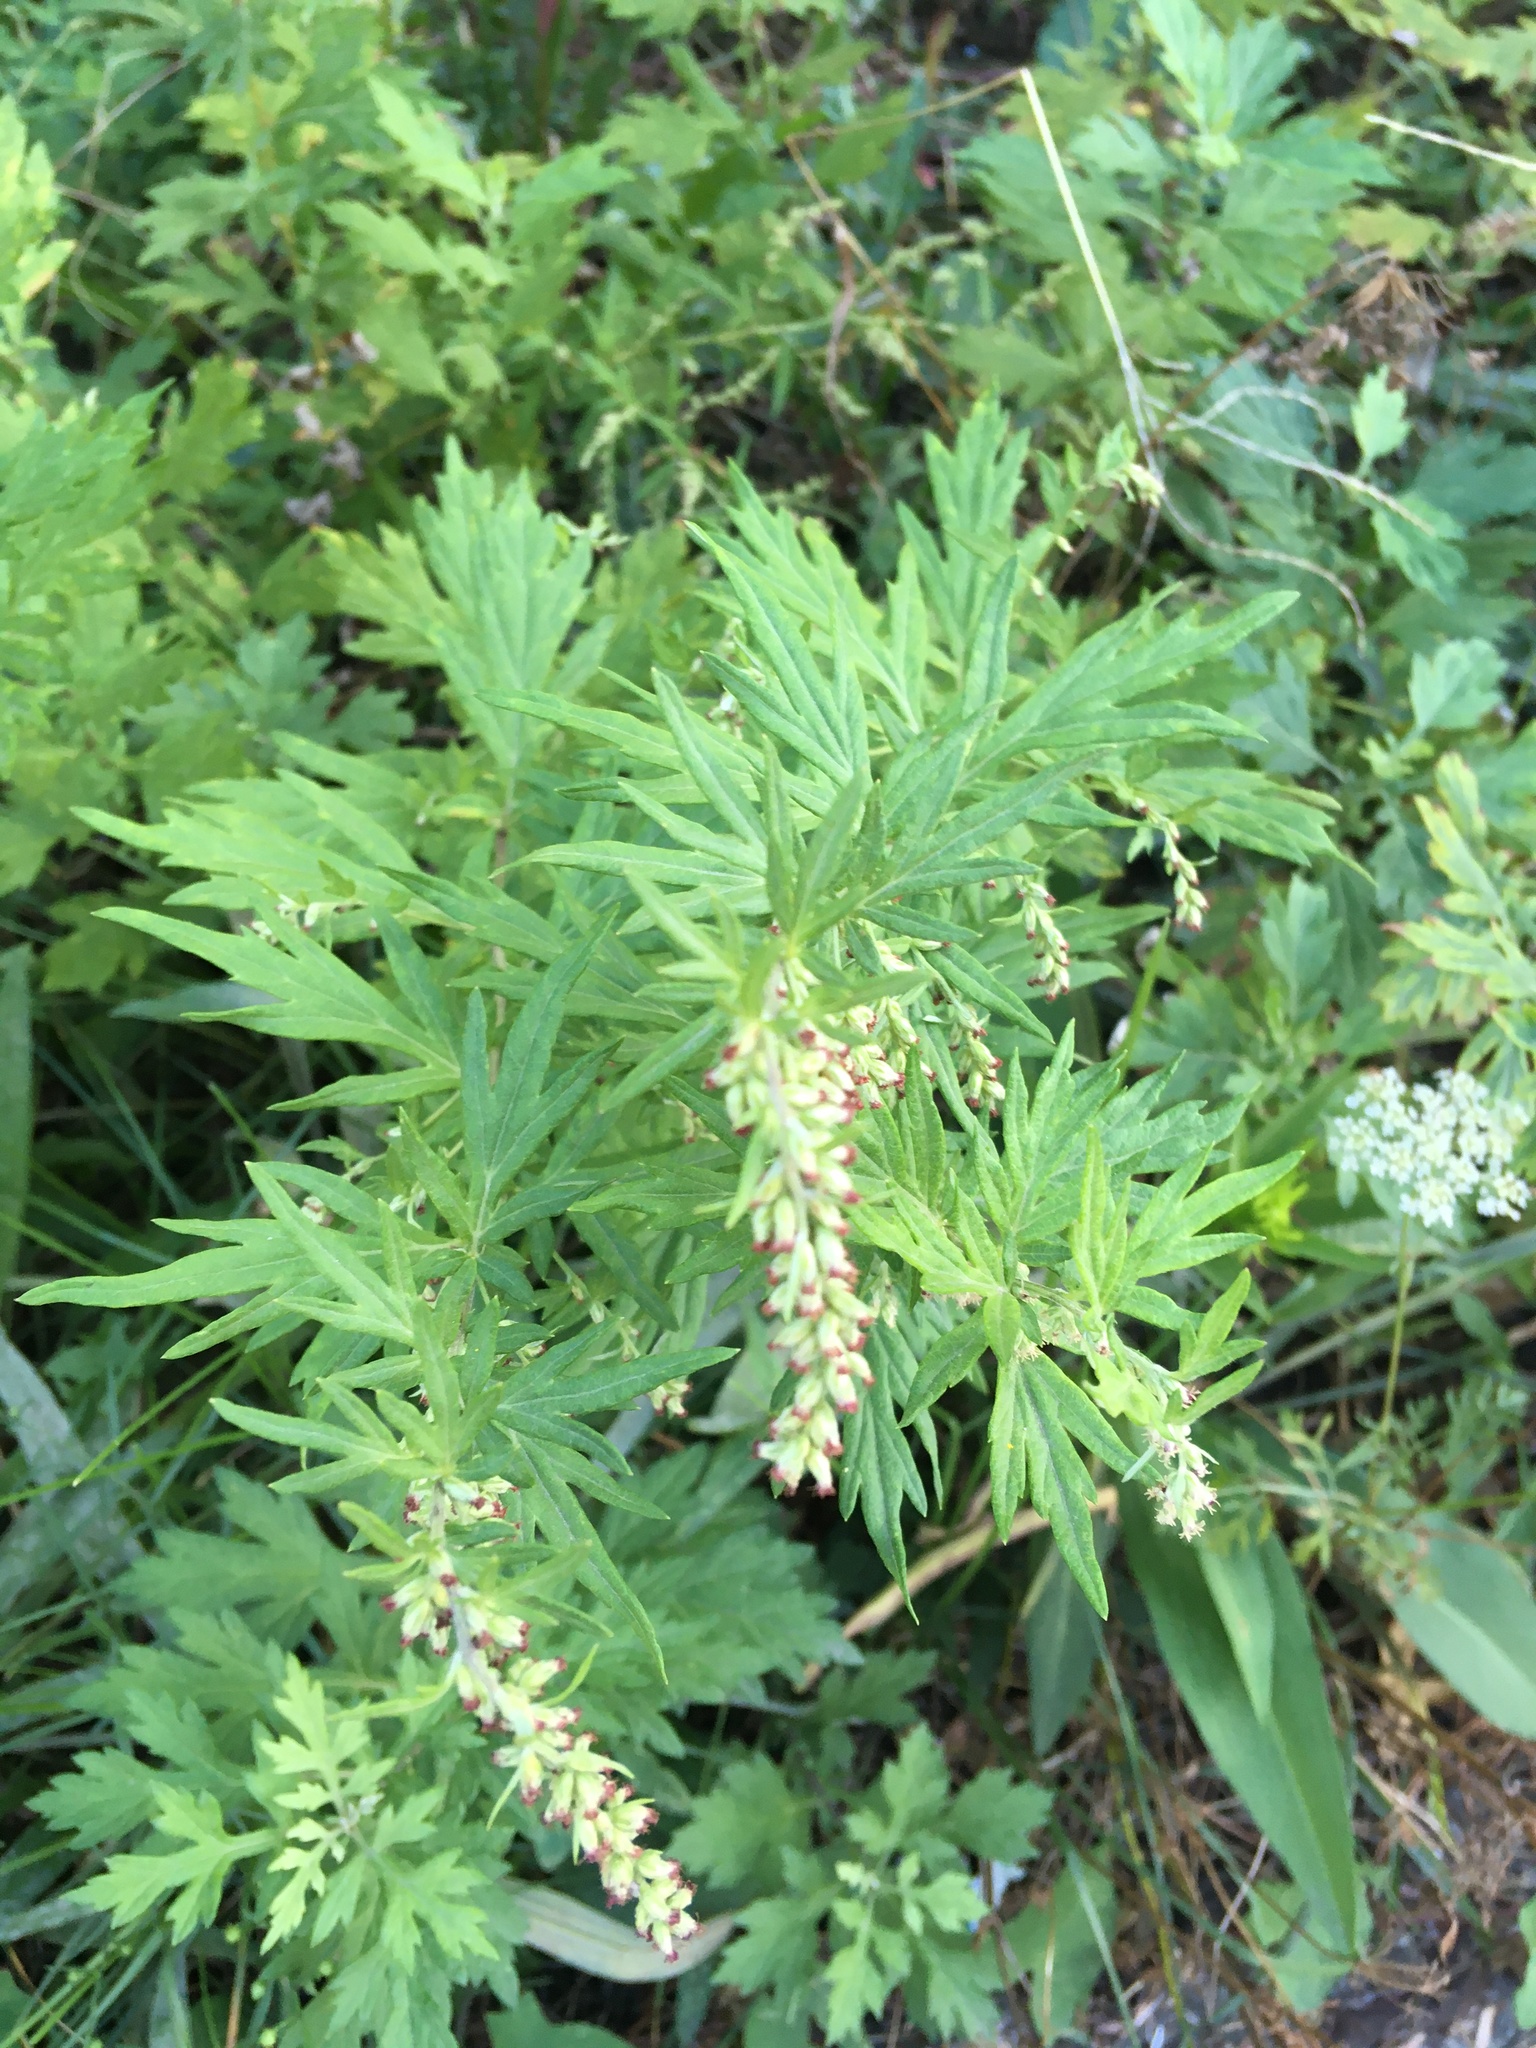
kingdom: Plantae
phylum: Tracheophyta
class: Magnoliopsida
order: Asterales
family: Asteraceae
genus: Artemisia
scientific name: Artemisia vulgaris
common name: Mugwort
